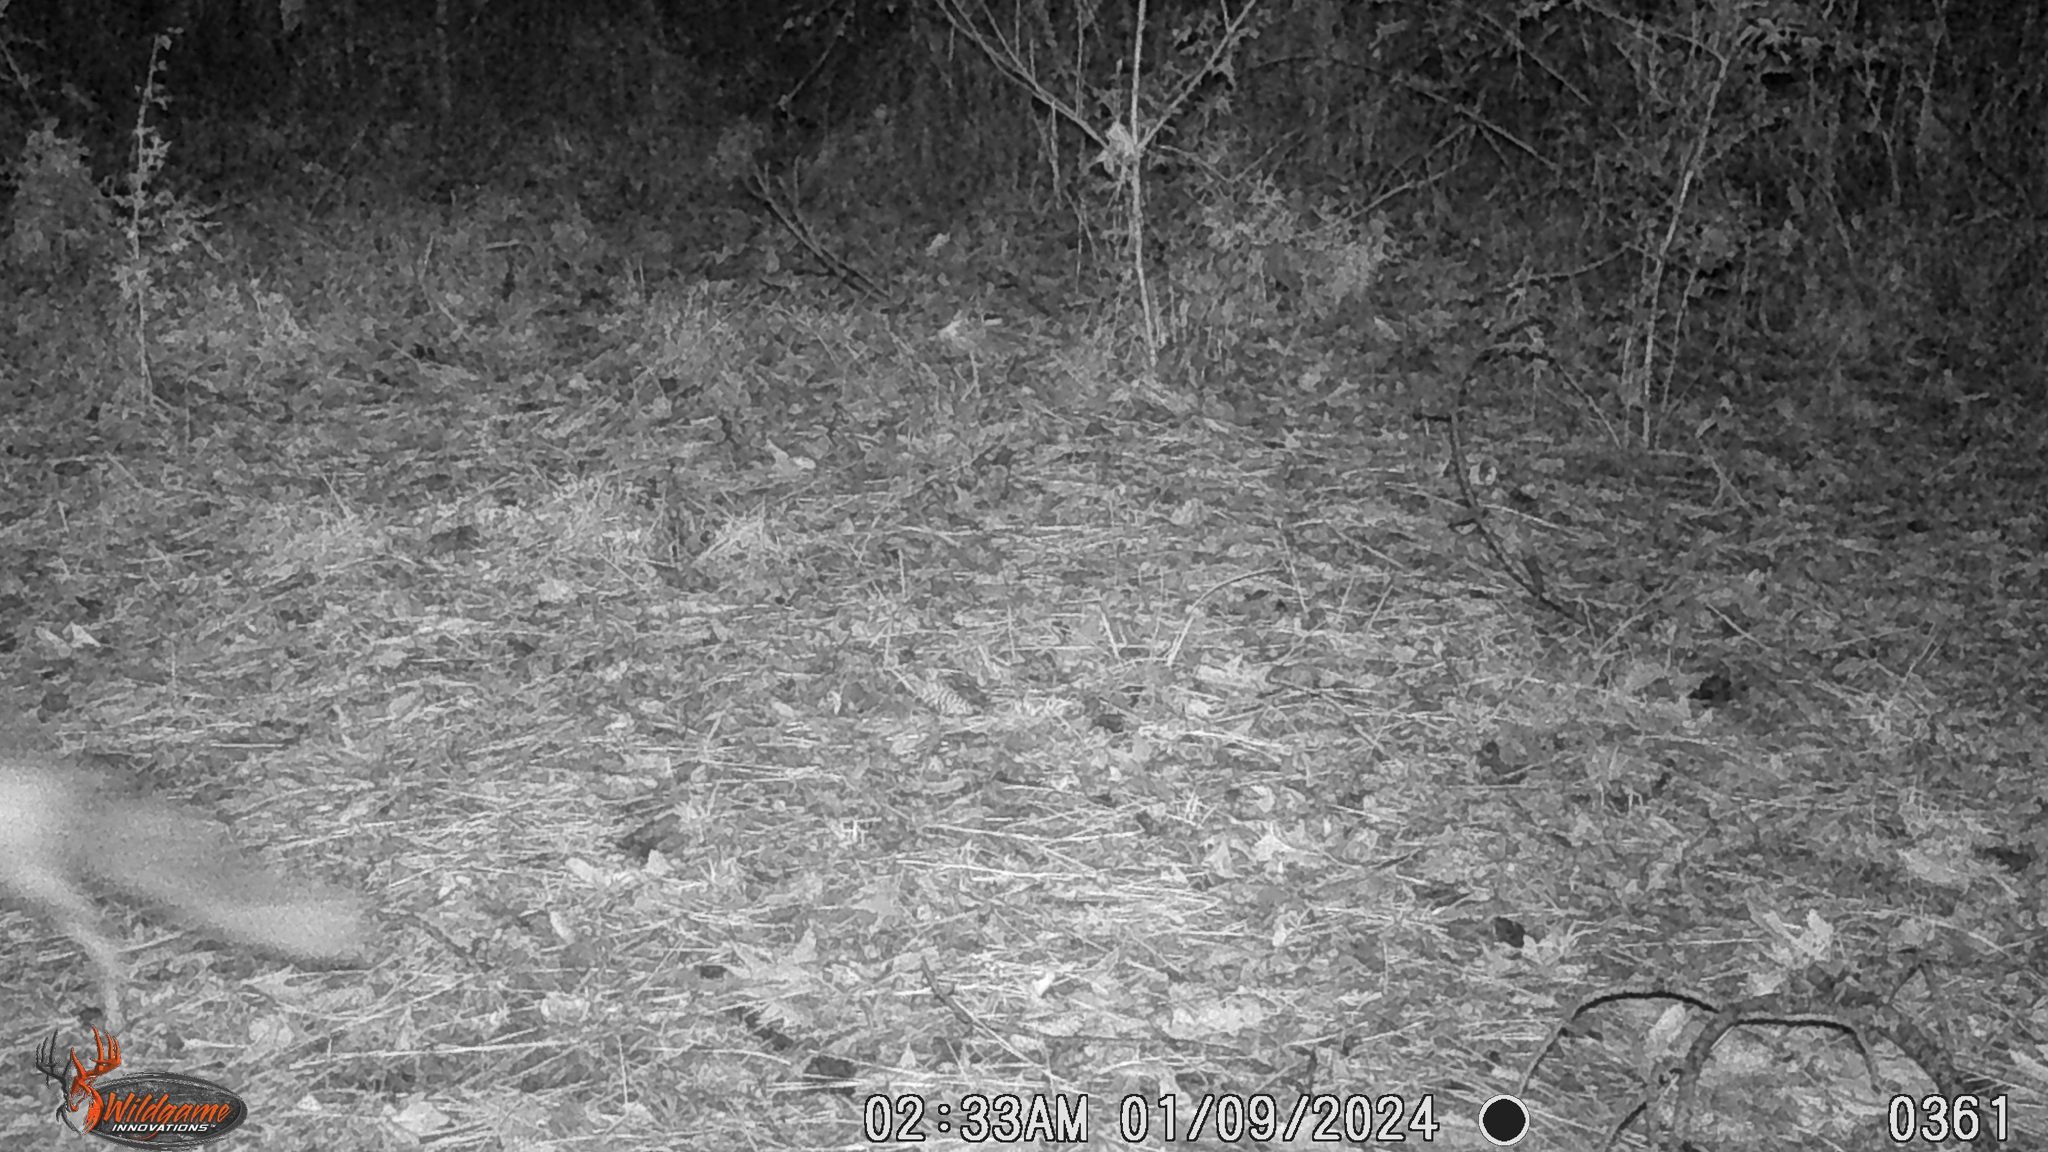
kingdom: Animalia
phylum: Chordata
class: Mammalia
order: Carnivora
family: Canidae
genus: Canis
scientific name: Canis latrans
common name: Coyote
